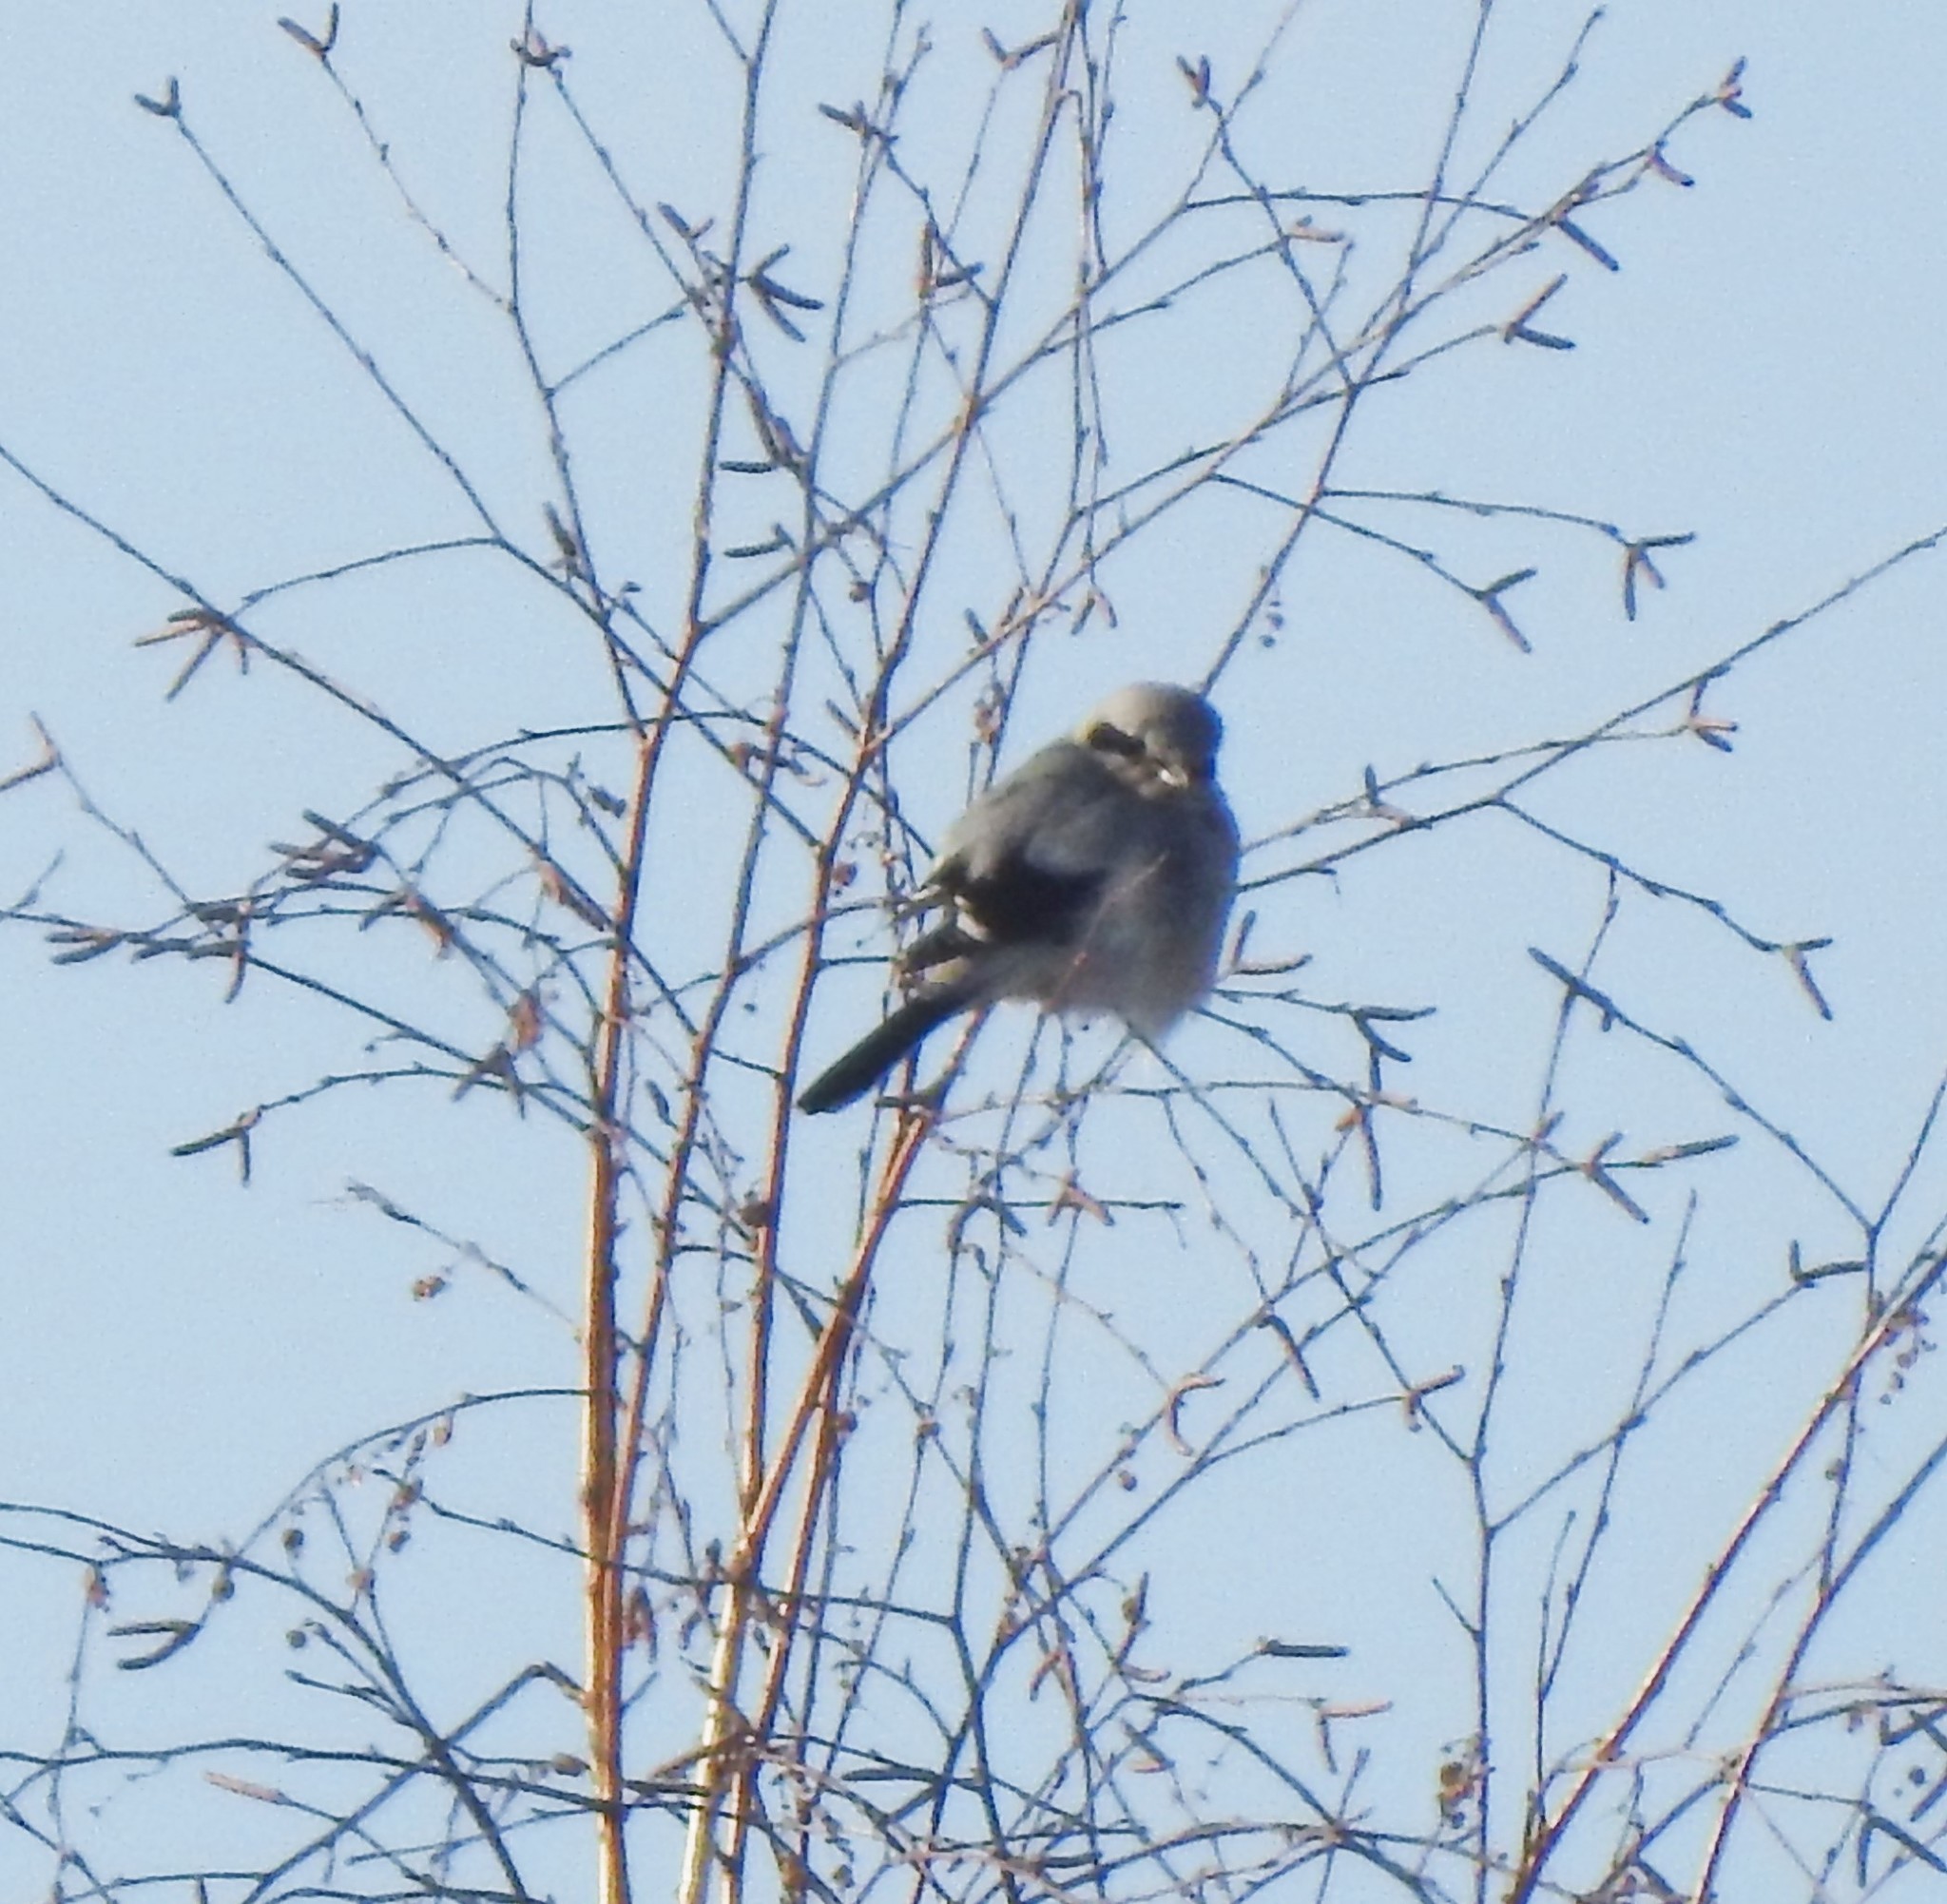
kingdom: Animalia
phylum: Chordata
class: Aves
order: Passeriformes
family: Laniidae
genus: Lanius
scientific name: Lanius excubitor
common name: Great grey shrike
